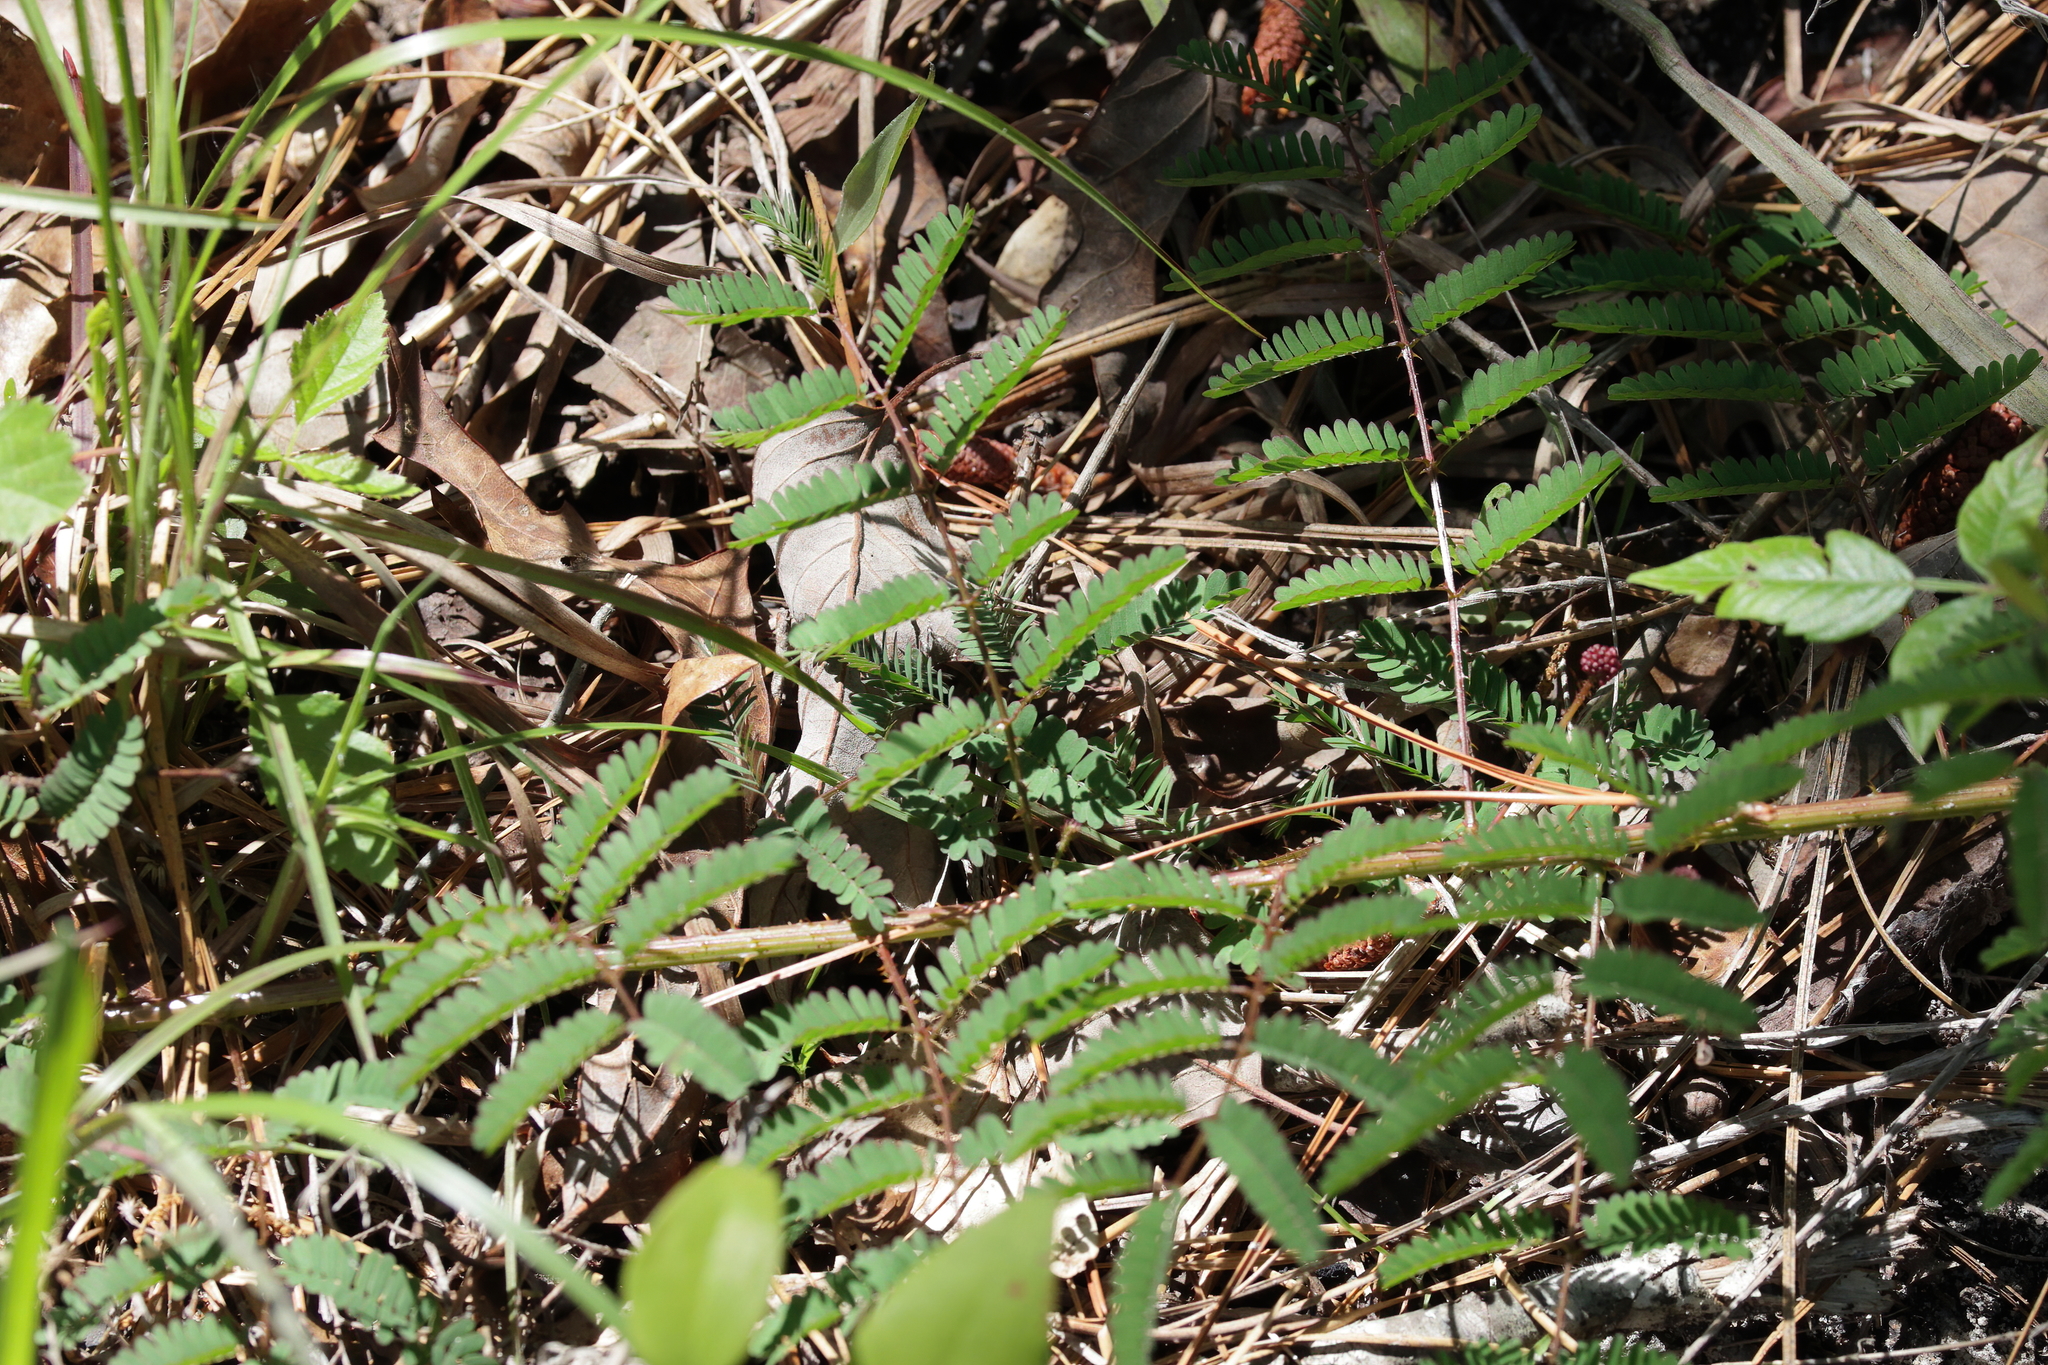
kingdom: Plantae
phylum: Tracheophyta
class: Magnoliopsida
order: Fabales
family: Fabaceae
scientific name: Fabaceae
